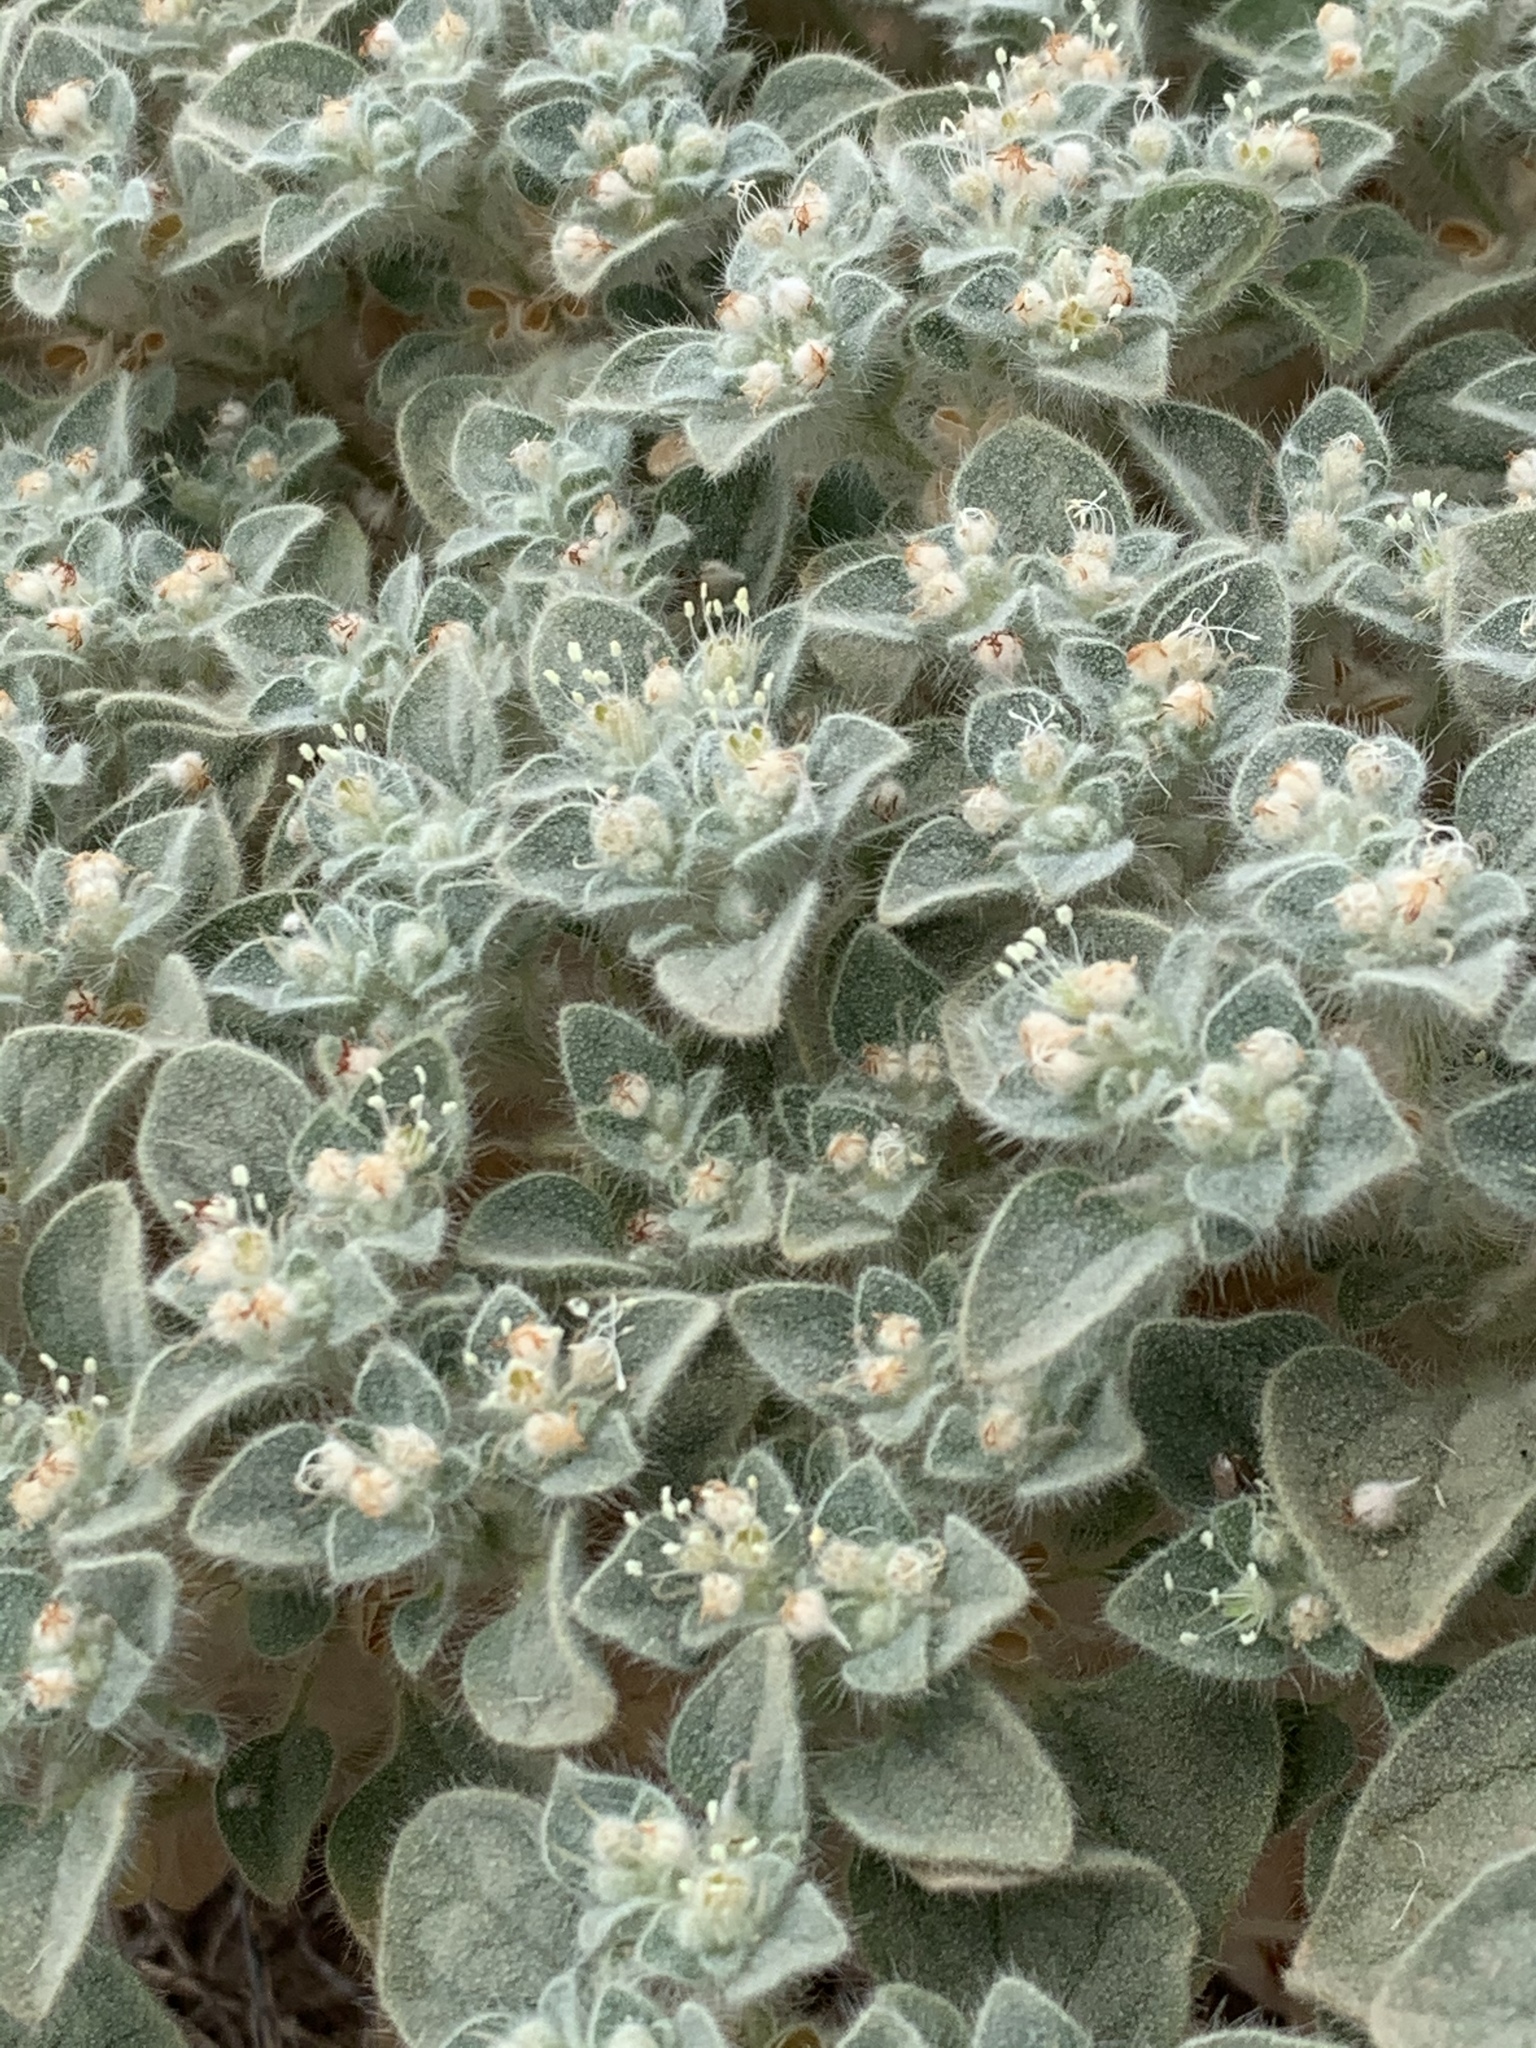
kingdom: Plantae
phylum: Tracheophyta
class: Magnoliopsida
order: Malpighiales
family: Euphorbiaceae
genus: Croton
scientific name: Croton setiger
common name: Dove weed
